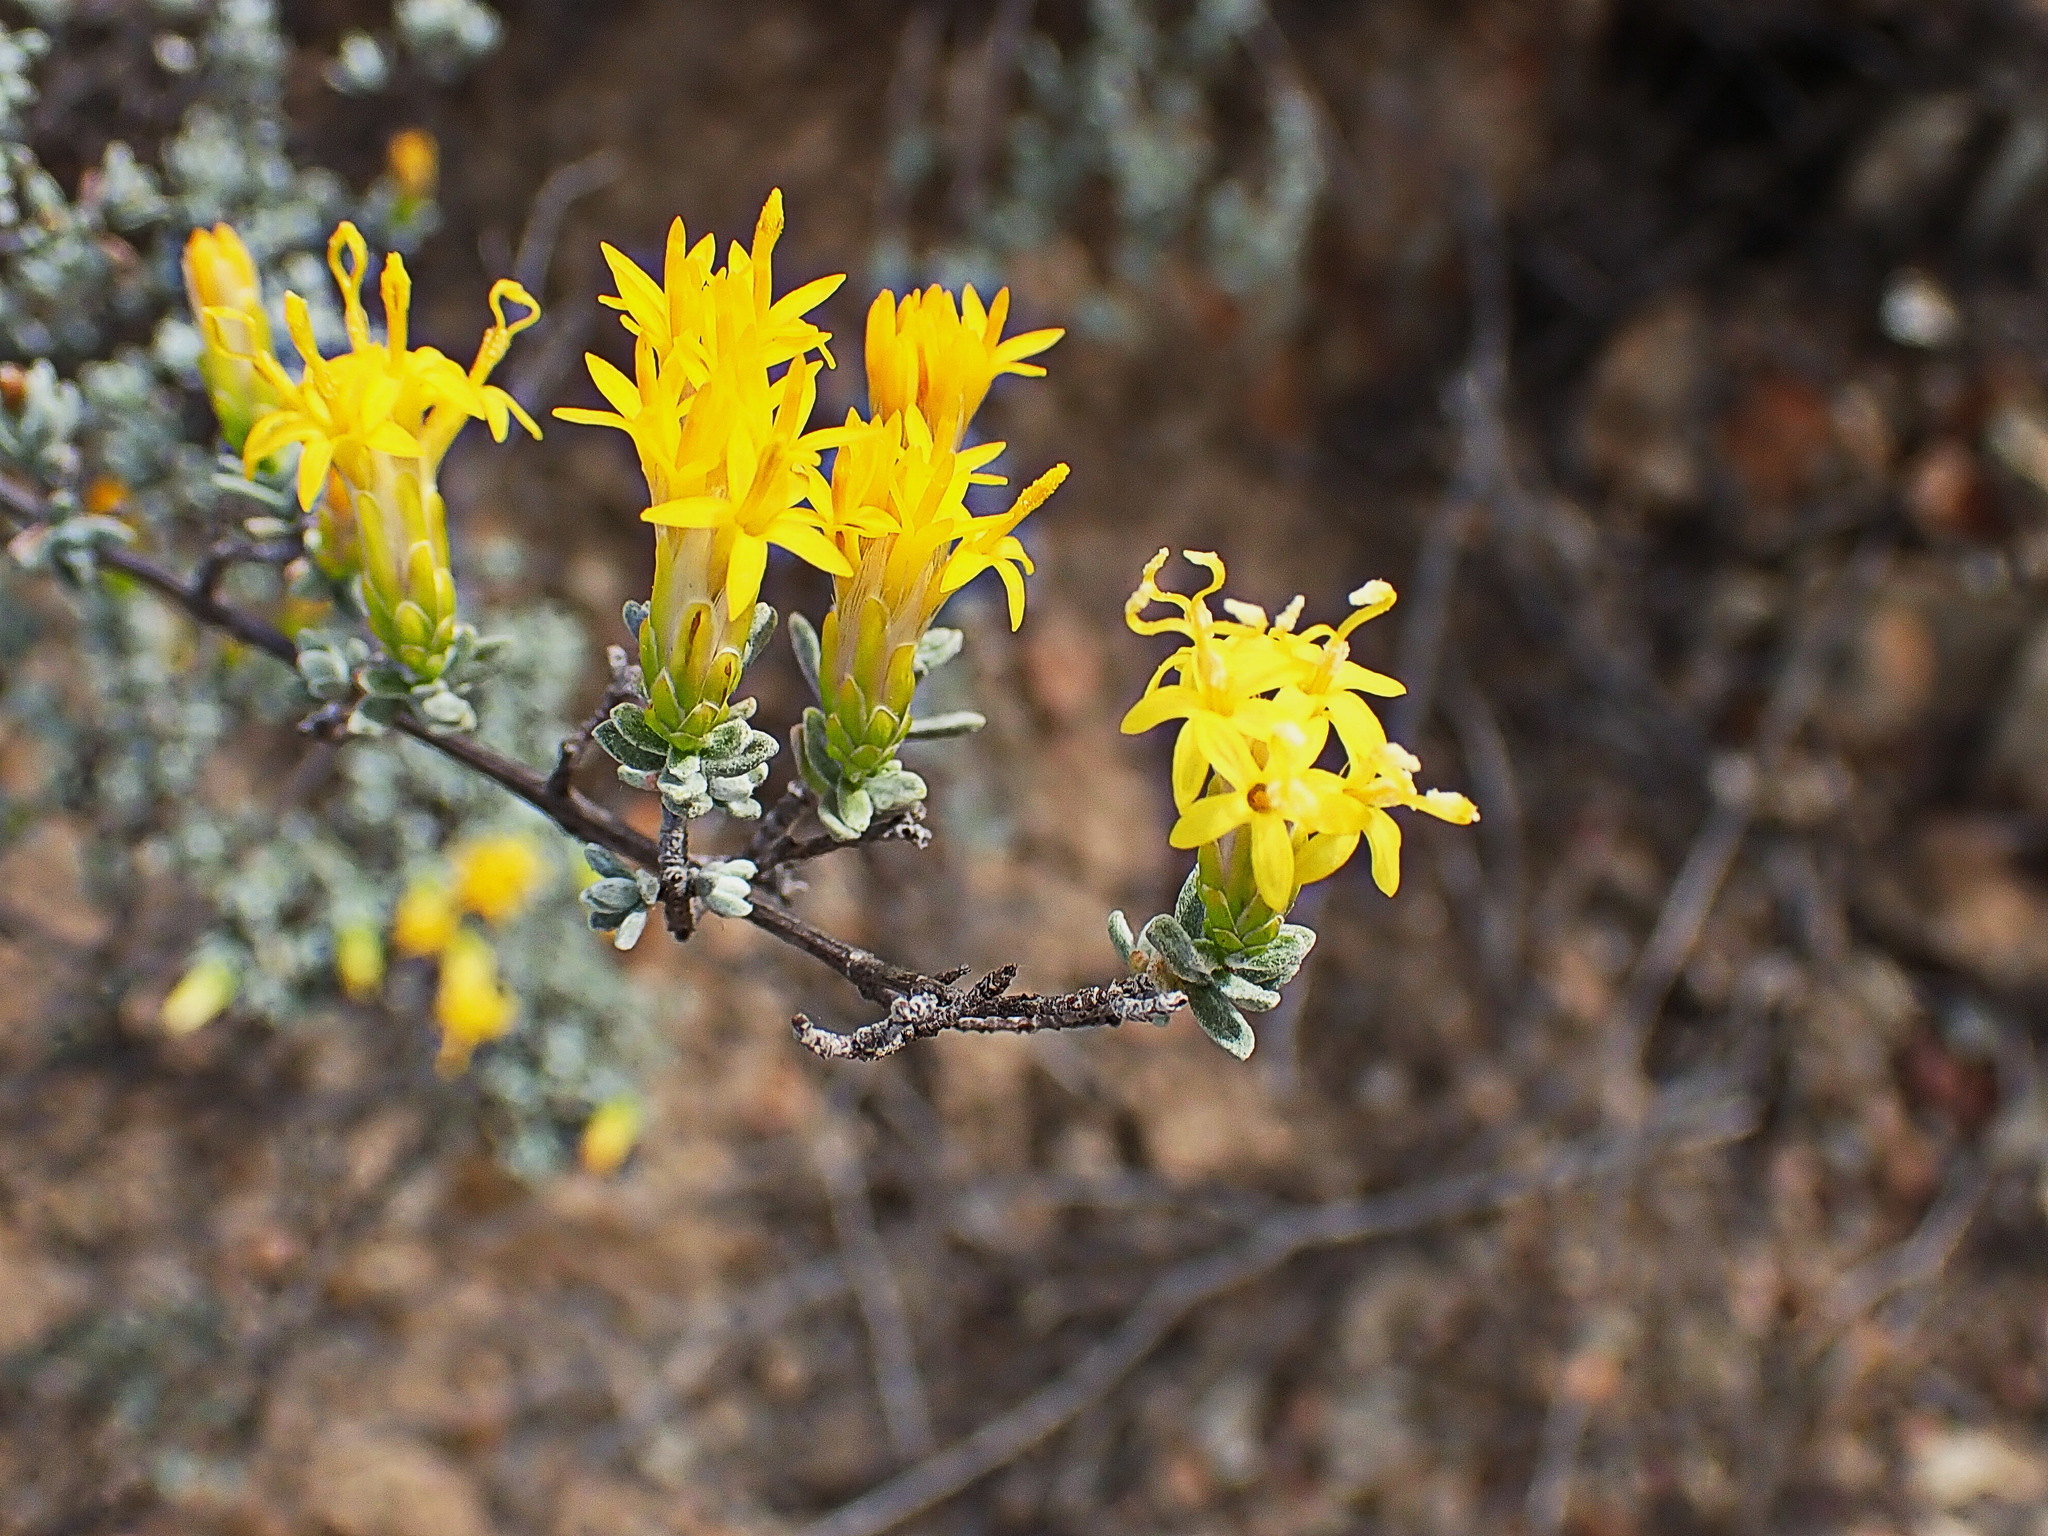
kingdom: Plantae
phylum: Tracheophyta
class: Magnoliopsida
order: Asterales
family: Asteraceae
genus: Pteronia
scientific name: Pteronia incana
